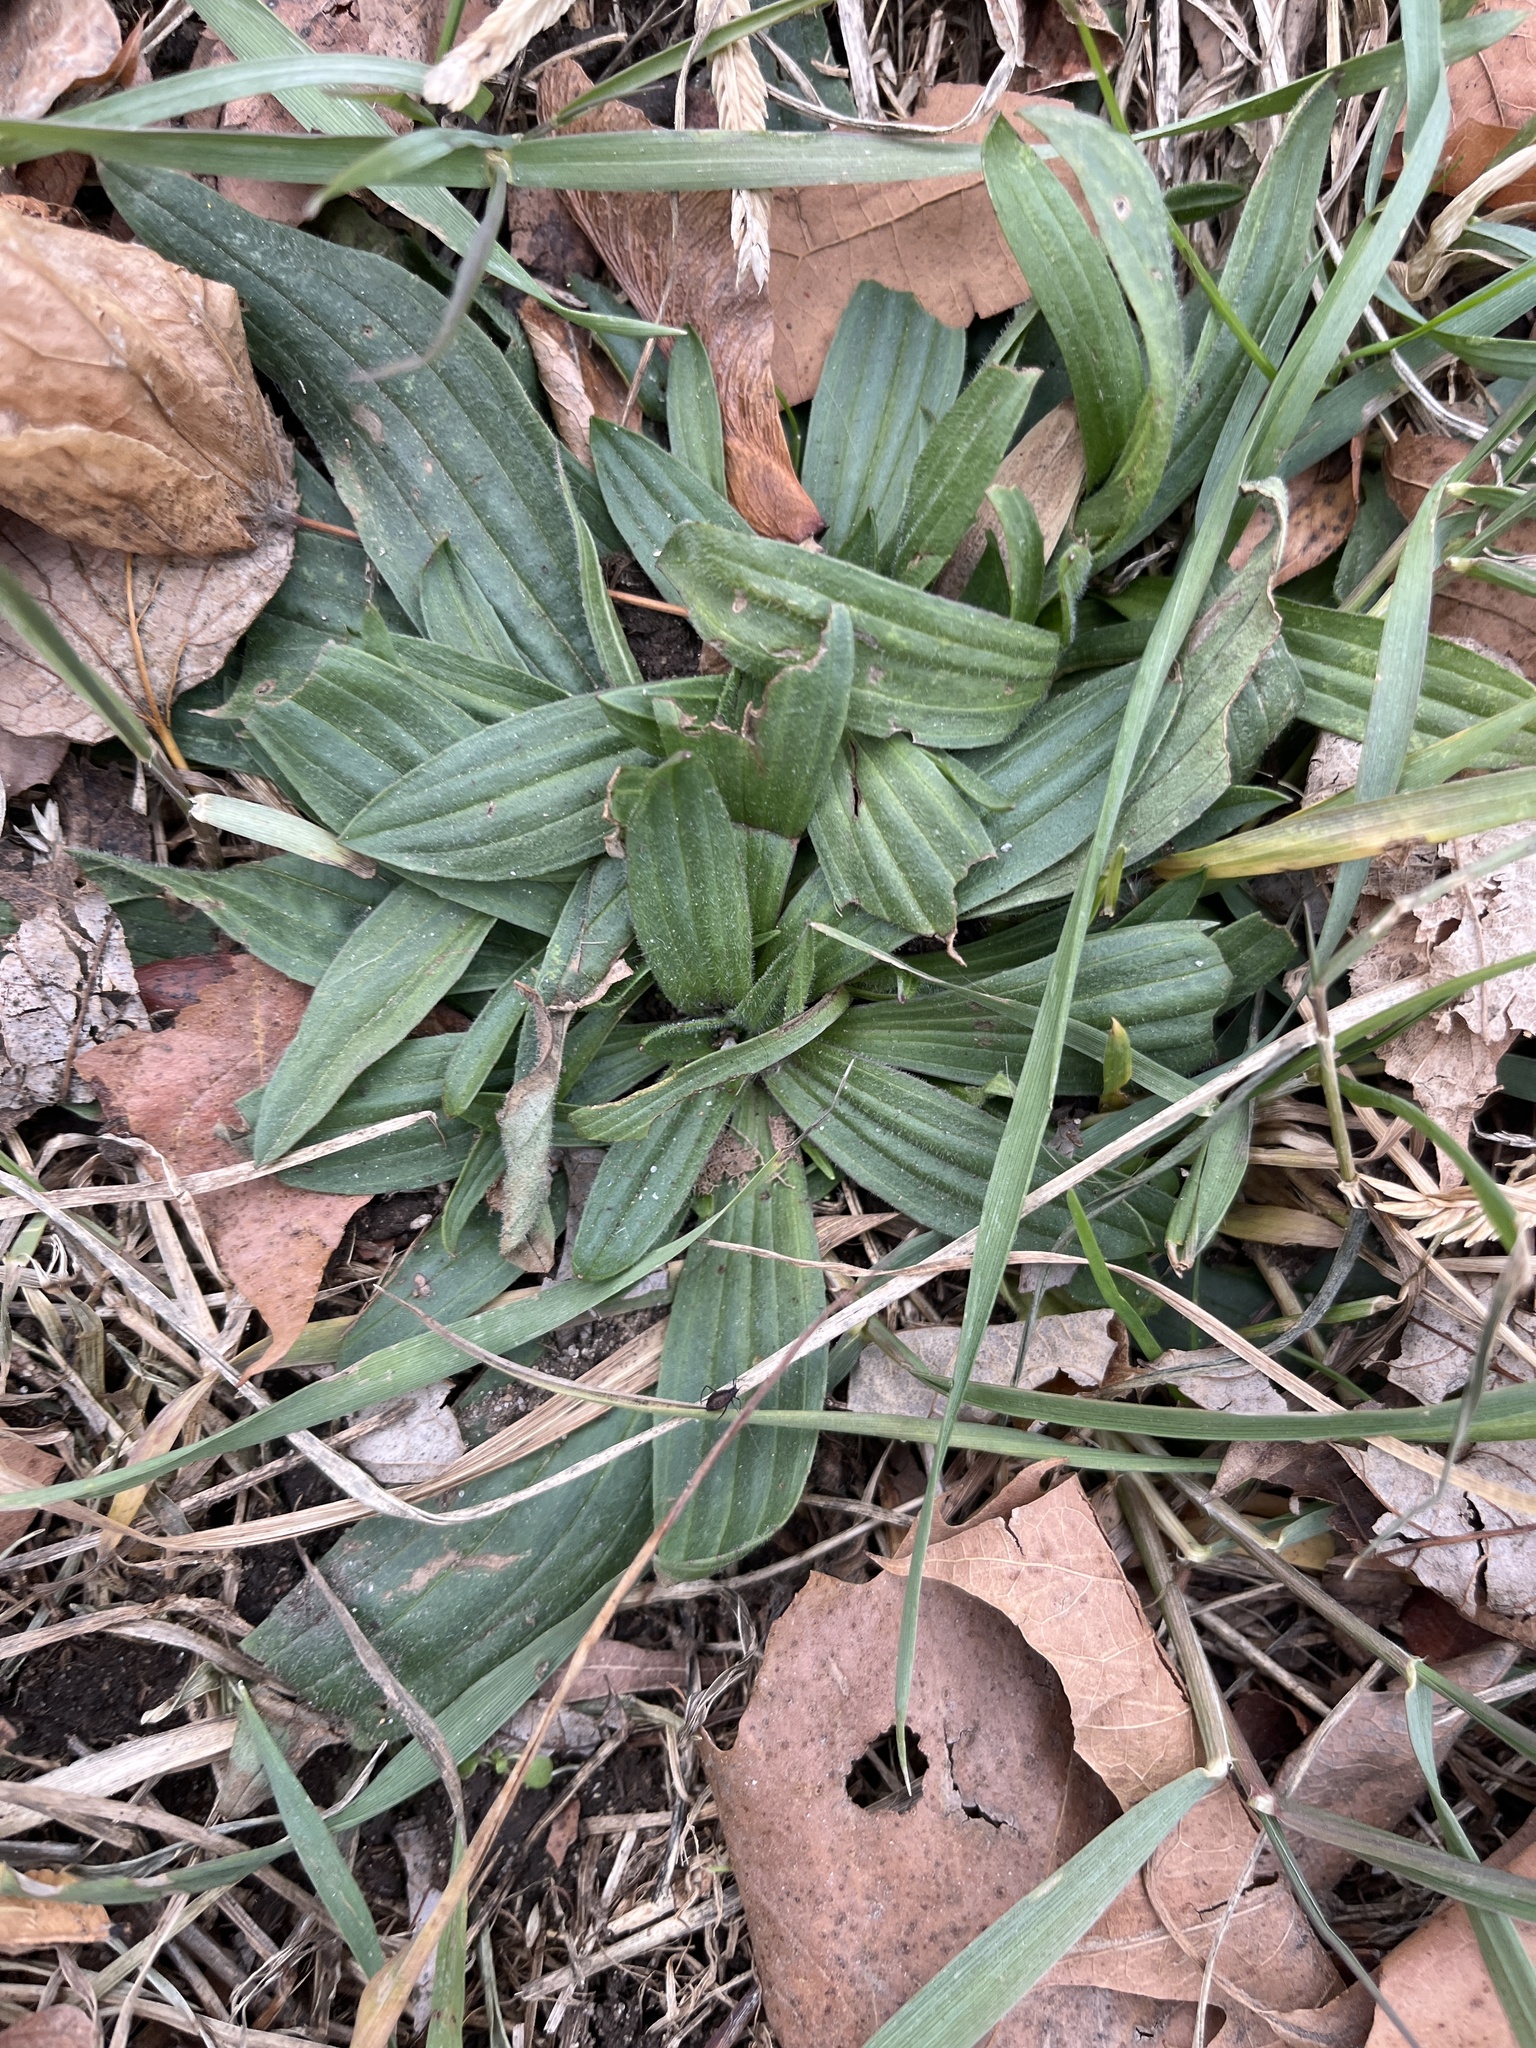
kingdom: Plantae
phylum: Tracheophyta
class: Magnoliopsida
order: Lamiales
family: Plantaginaceae
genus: Plantago
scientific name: Plantago lanceolata
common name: Ribwort plantain
